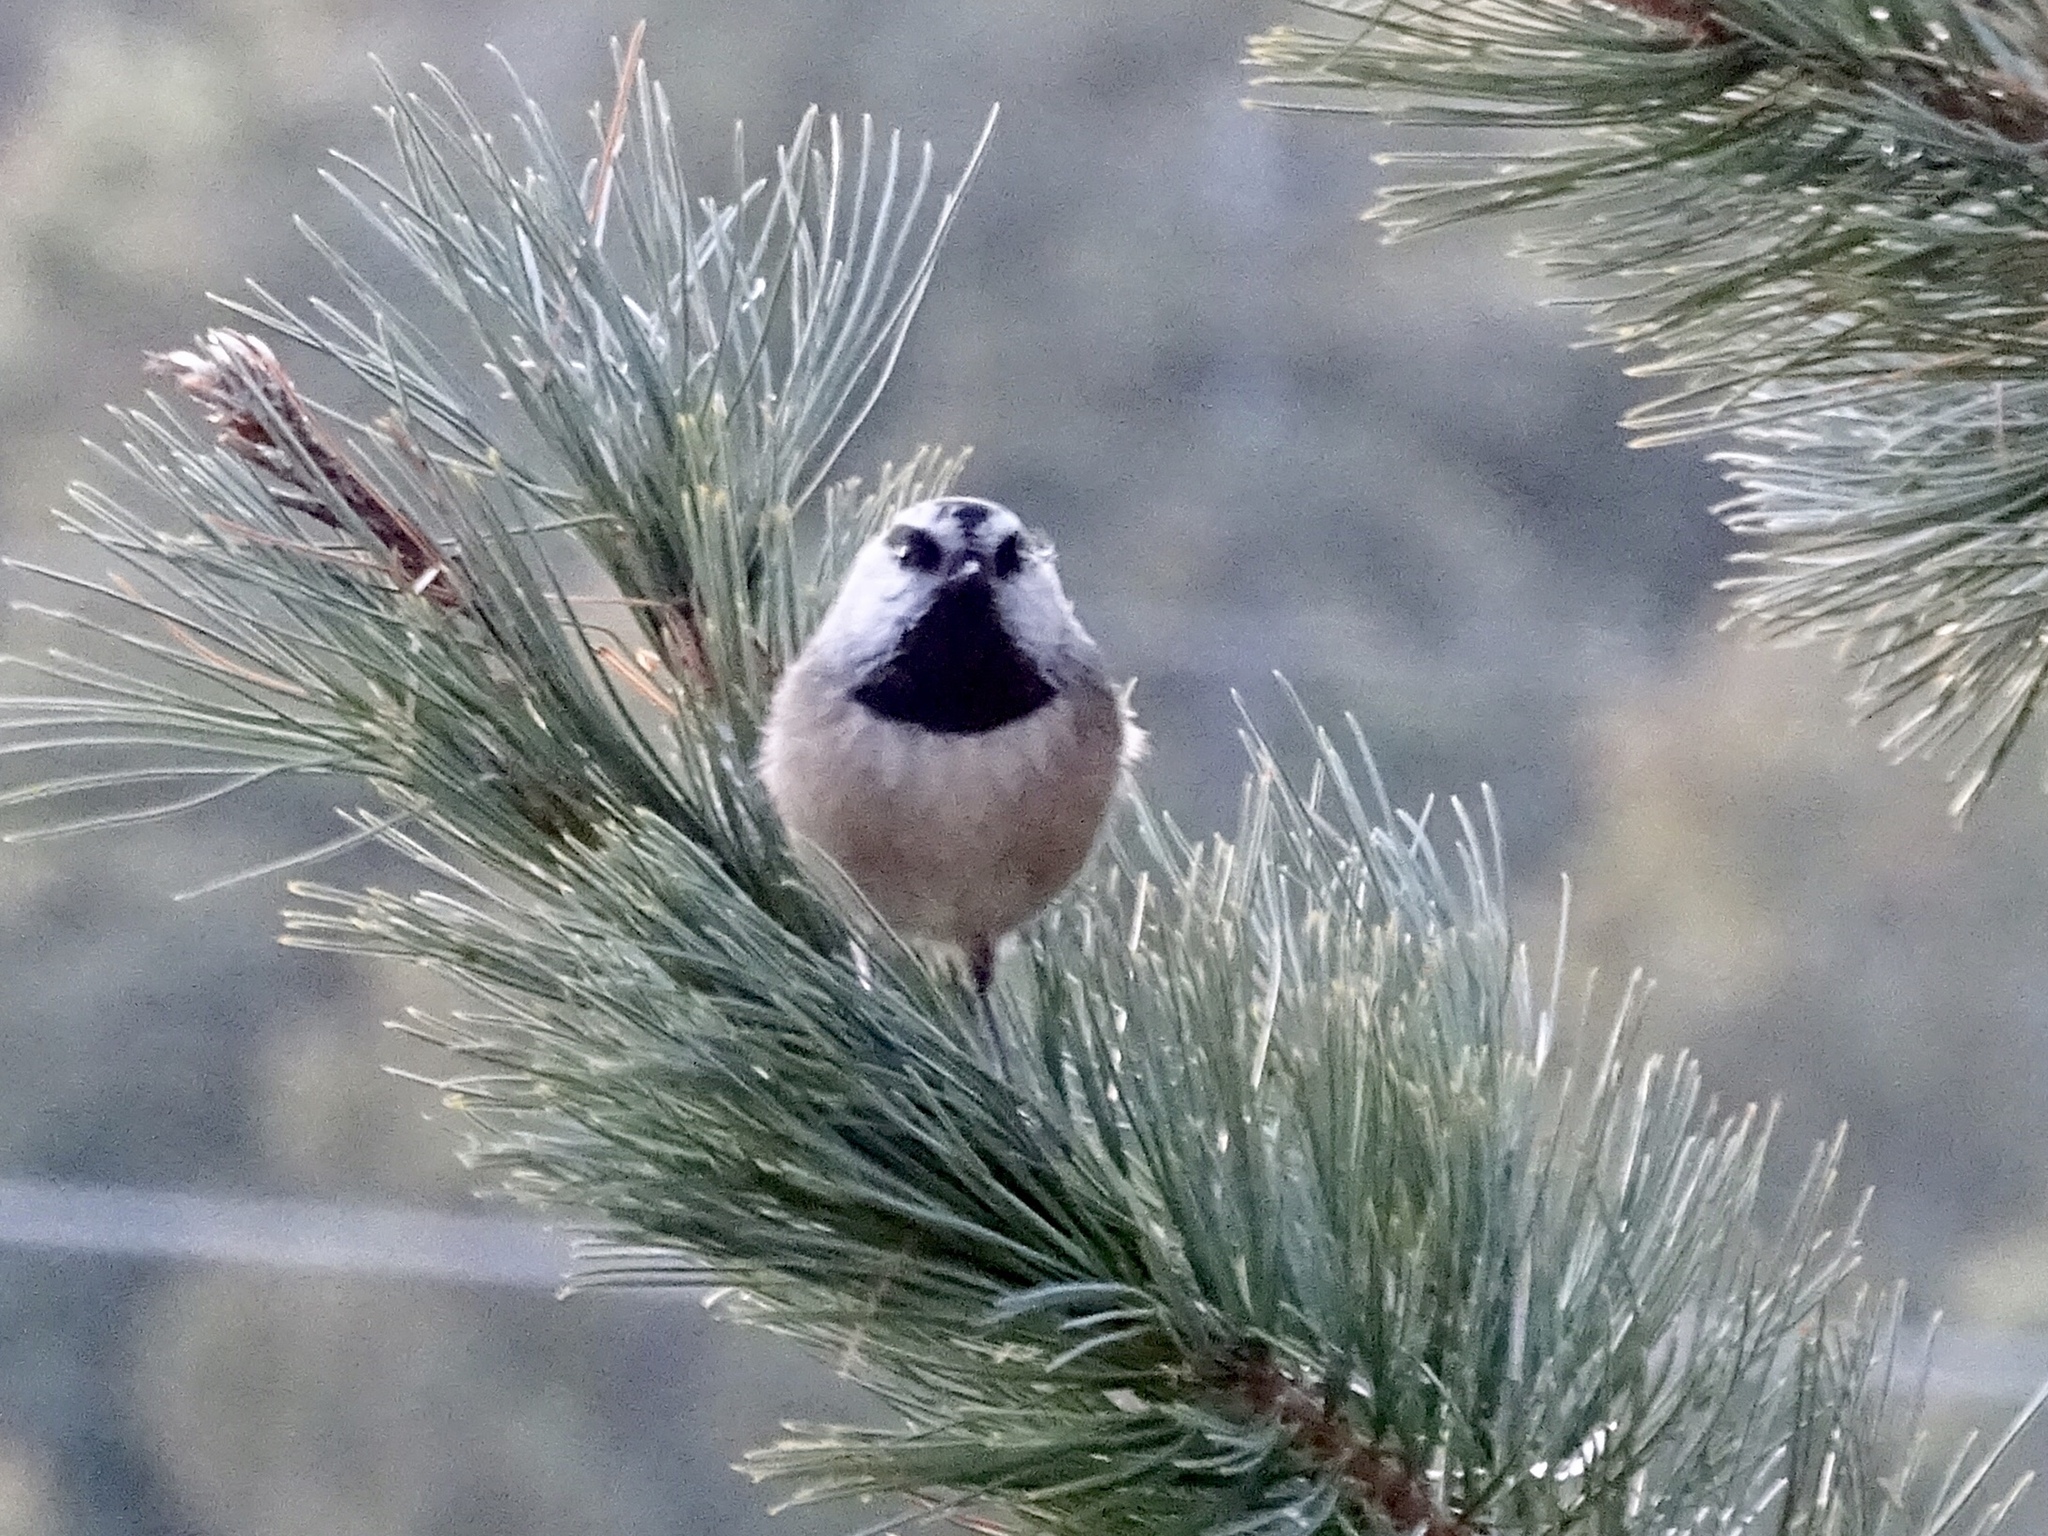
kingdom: Animalia
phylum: Chordata
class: Aves
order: Passeriformes
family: Paridae
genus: Poecile
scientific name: Poecile gambeli
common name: Mountain chickadee
